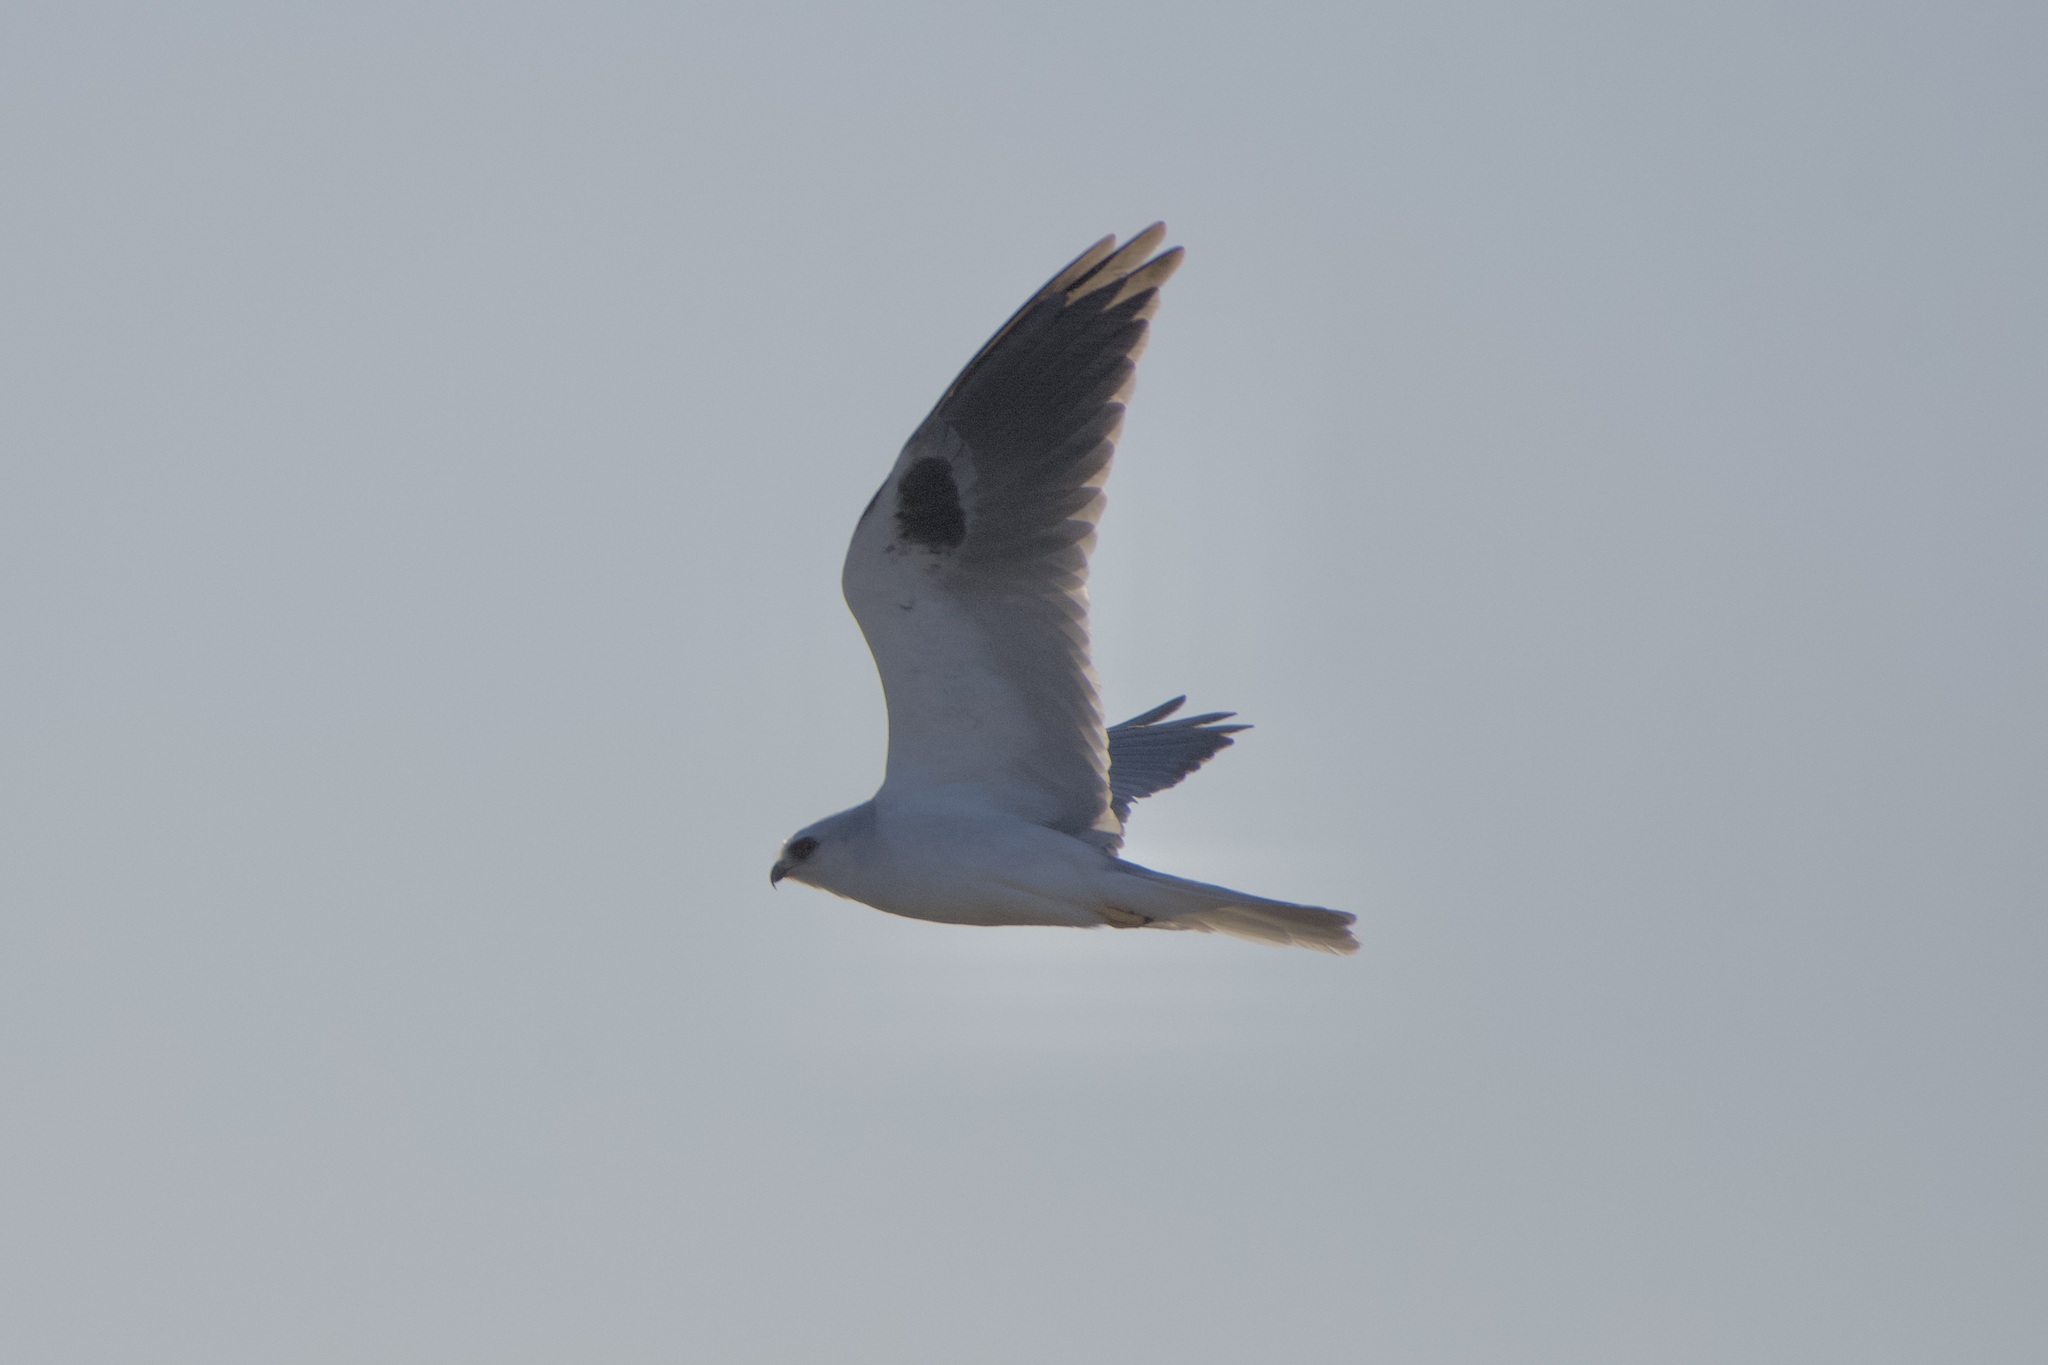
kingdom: Animalia
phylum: Chordata
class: Aves
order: Accipitriformes
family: Accipitridae
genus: Elanus
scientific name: Elanus leucurus
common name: White-tailed kite
